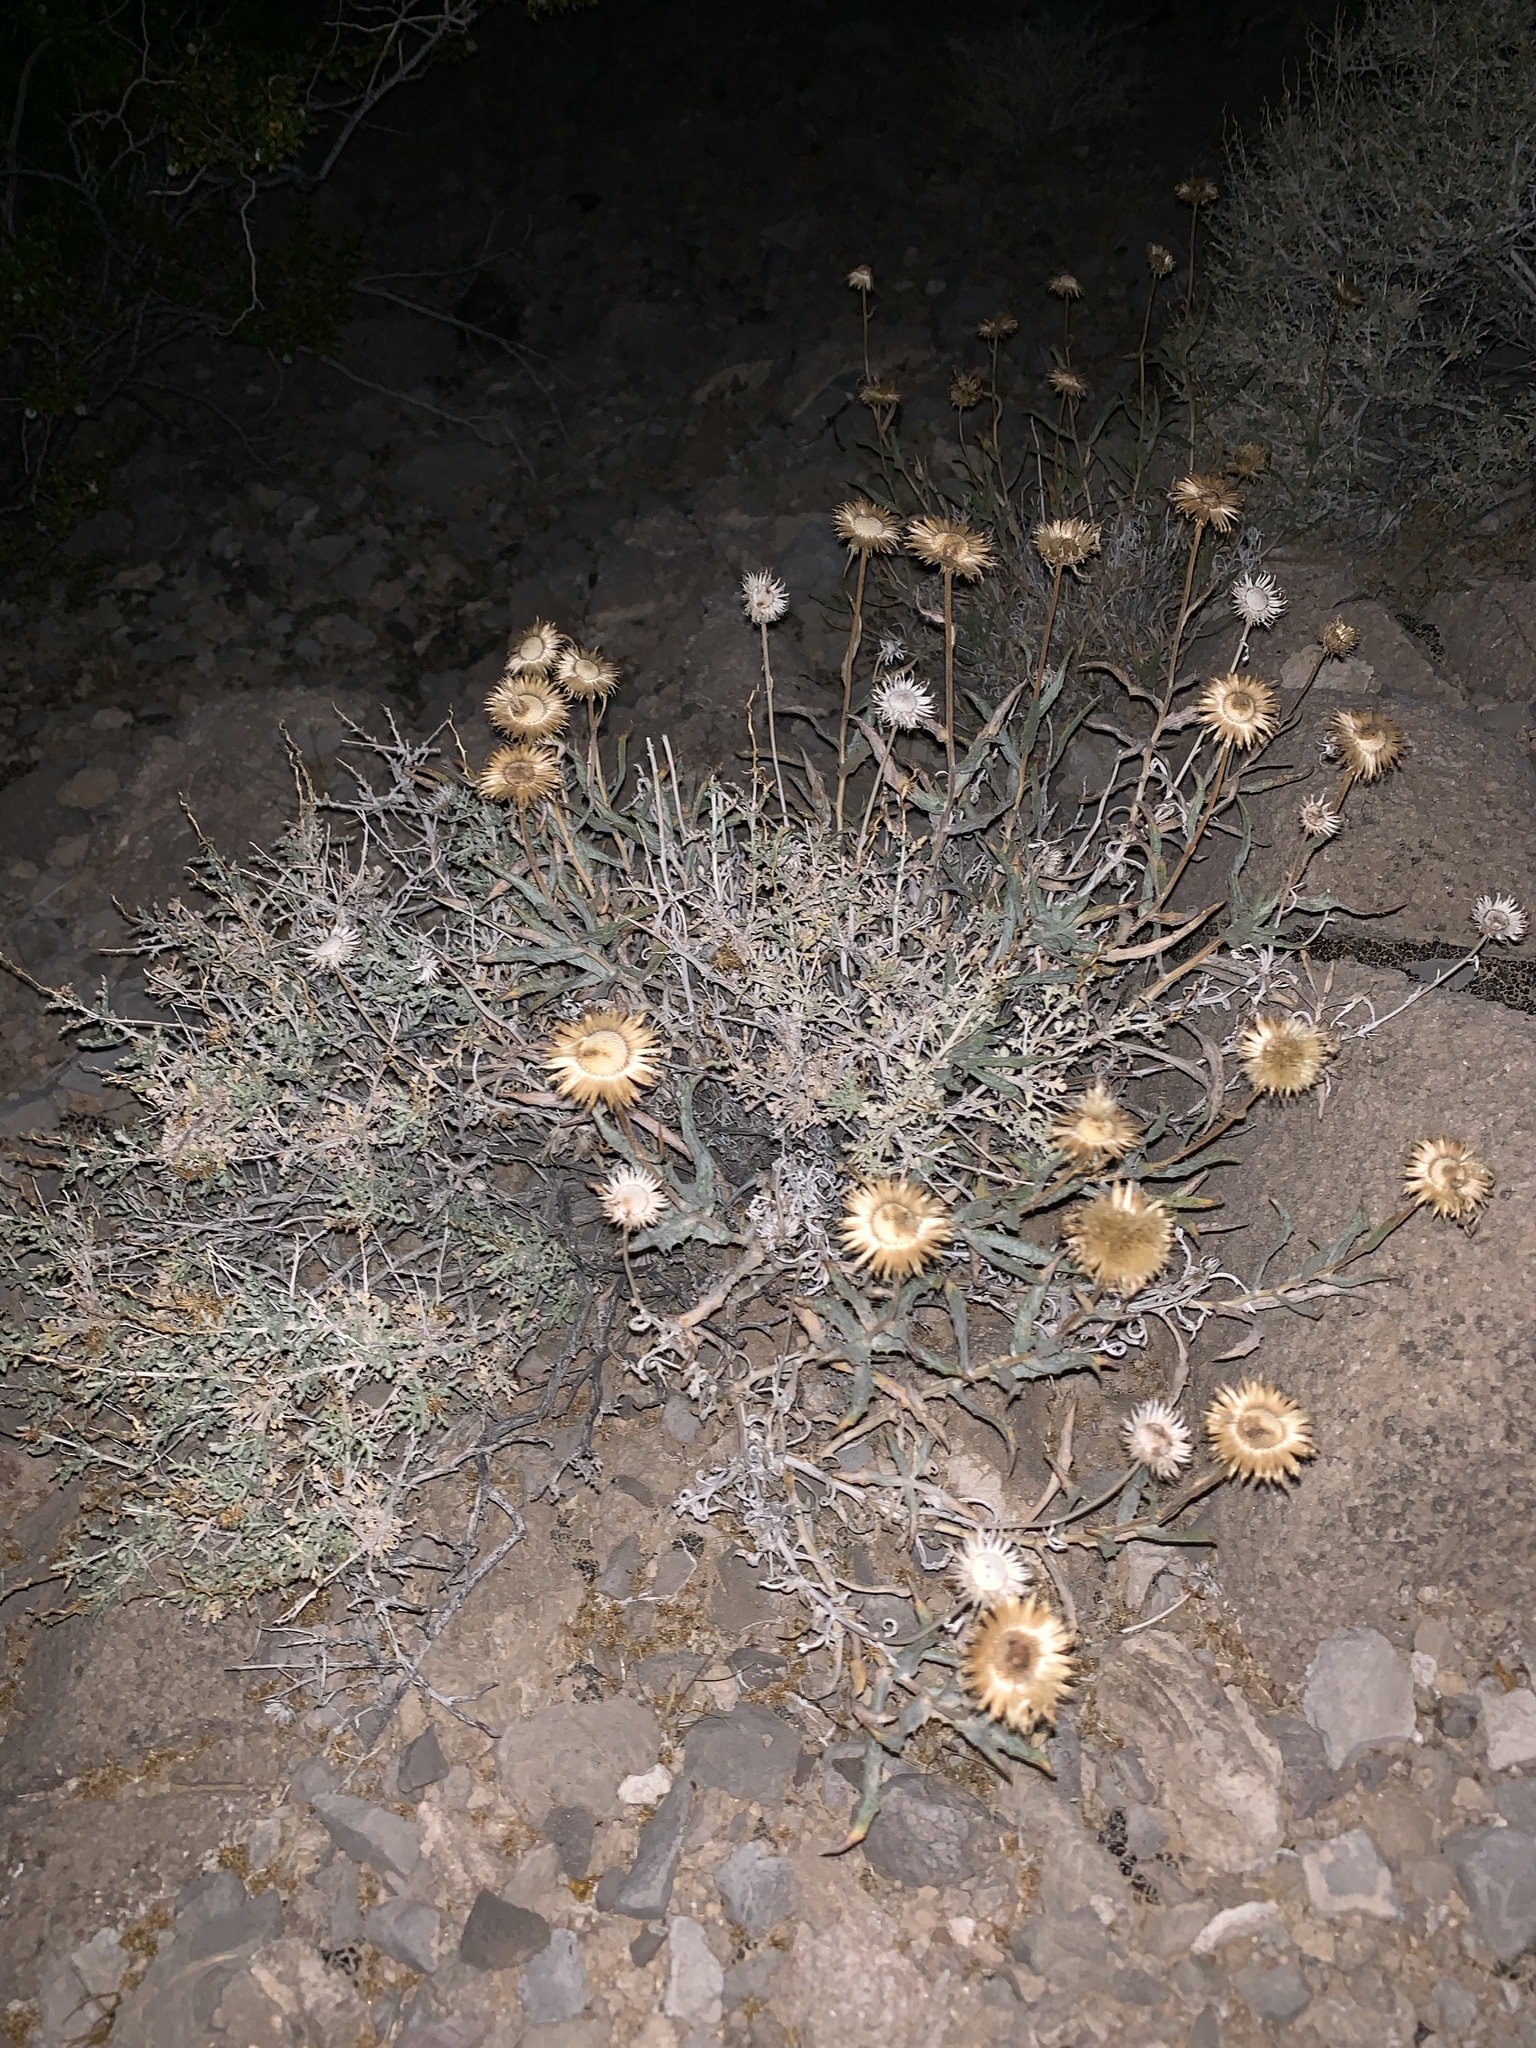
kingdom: Plantae
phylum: Tracheophyta
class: Magnoliopsida
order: Asterales
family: Asteraceae
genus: Xylorhiza
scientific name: Xylorhiza tortifolia
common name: Hurt-leaf woody-aster
